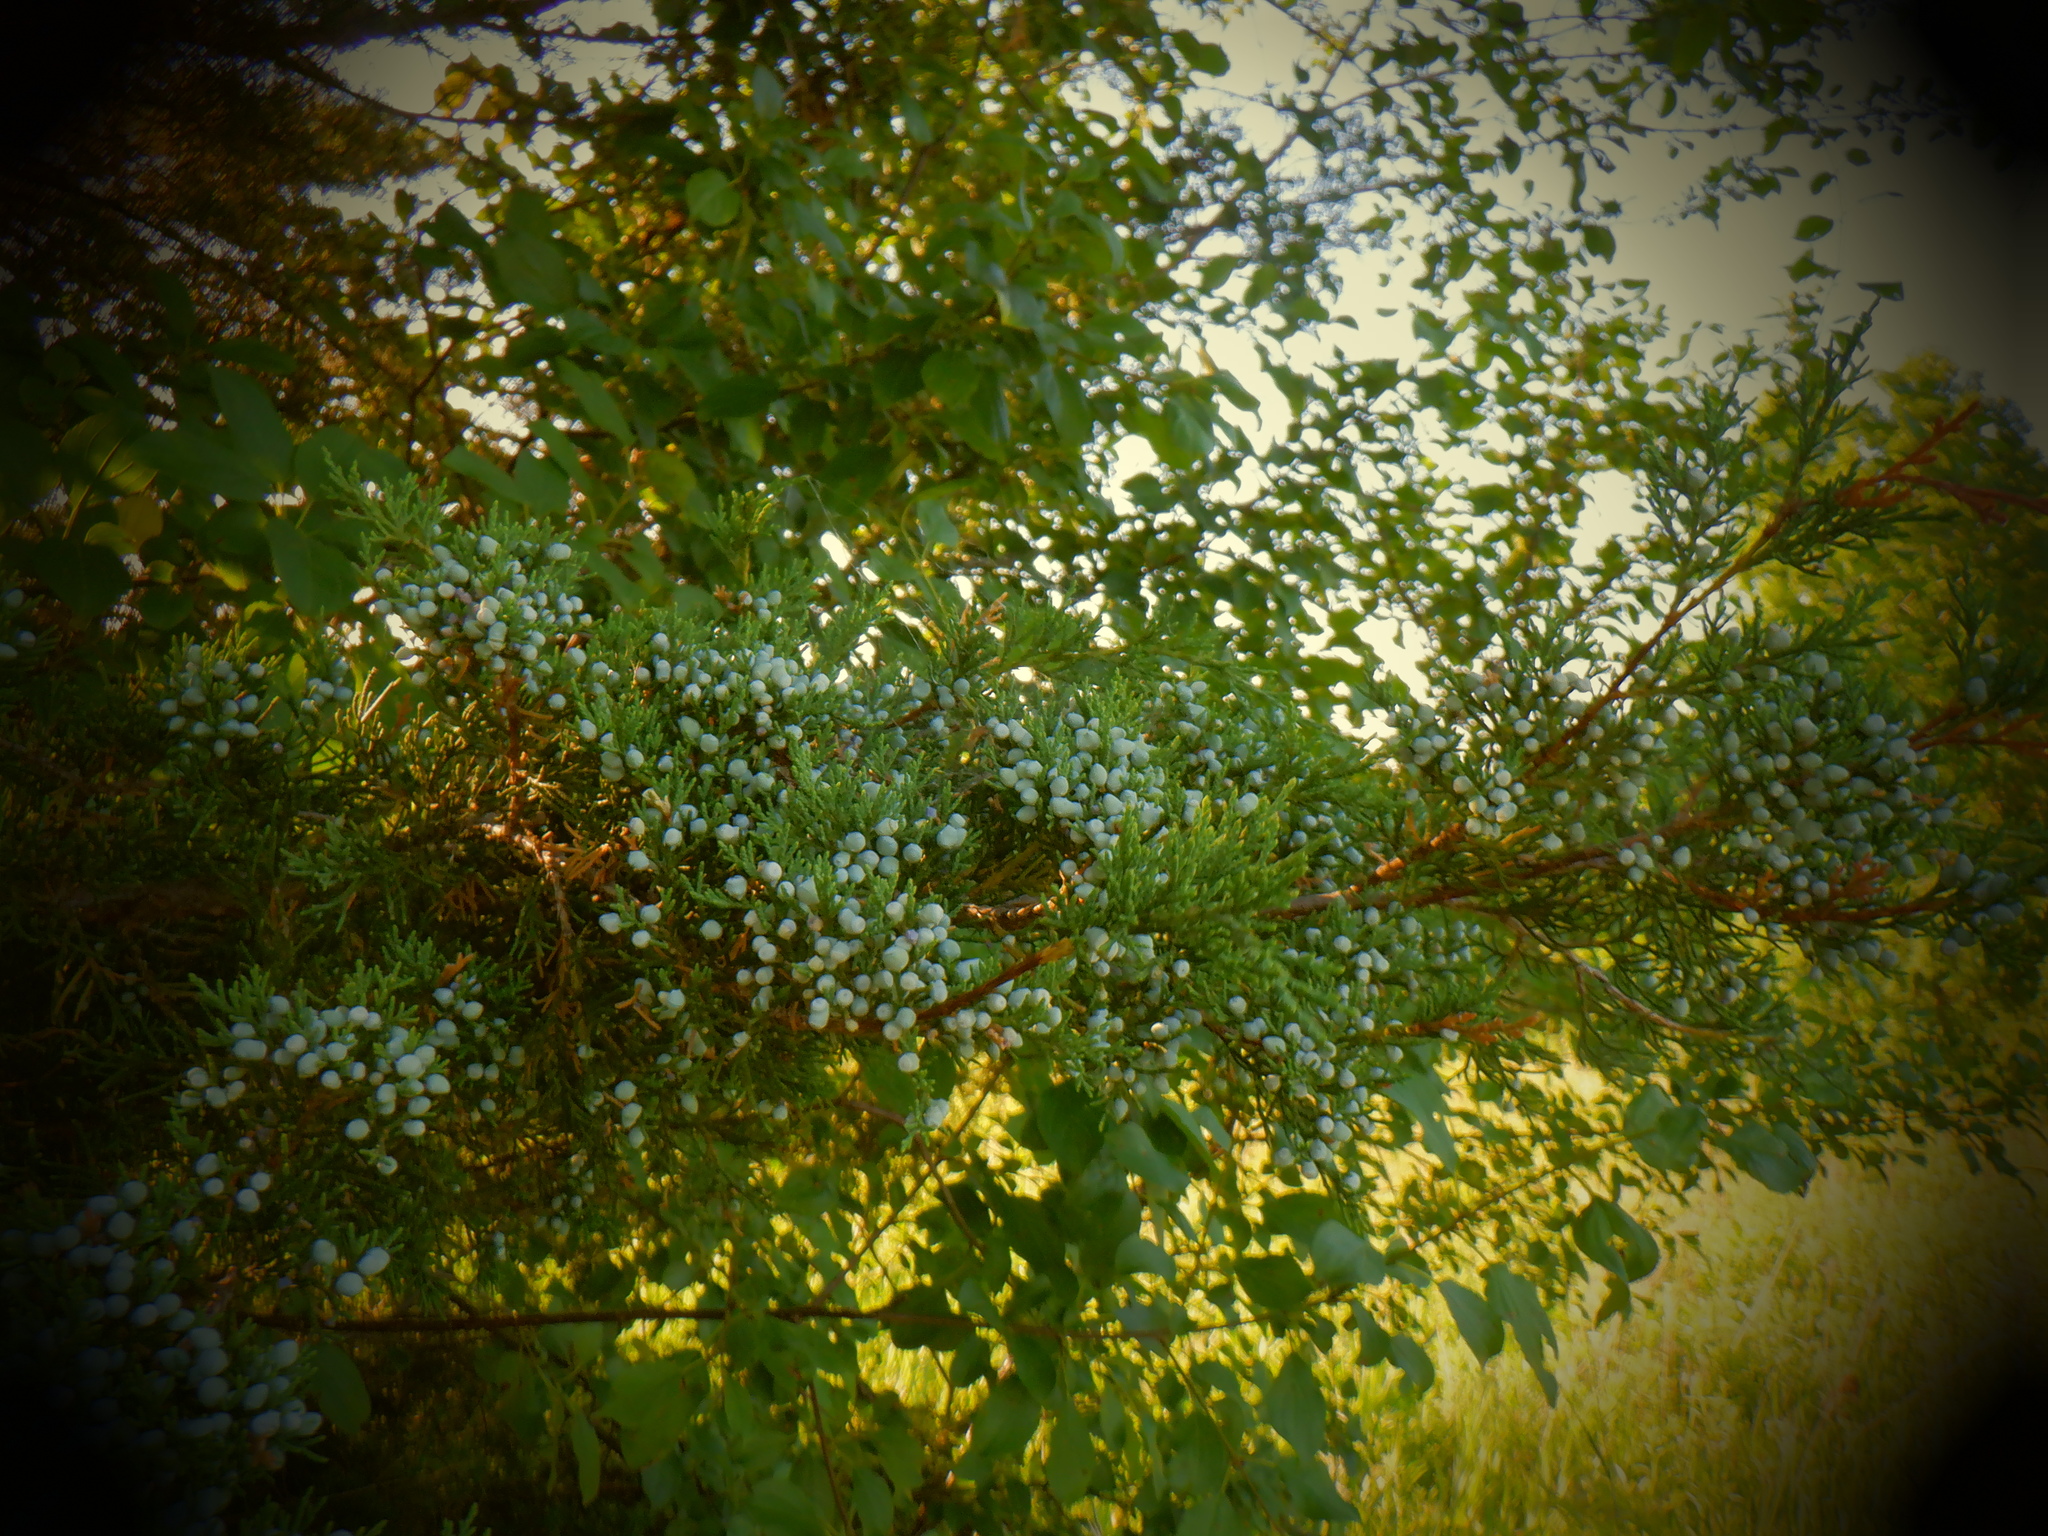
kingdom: Plantae
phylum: Tracheophyta
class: Pinopsida
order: Pinales
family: Cupressaceae
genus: Juniperus
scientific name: Juniperus virginiana
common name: Red juniper
